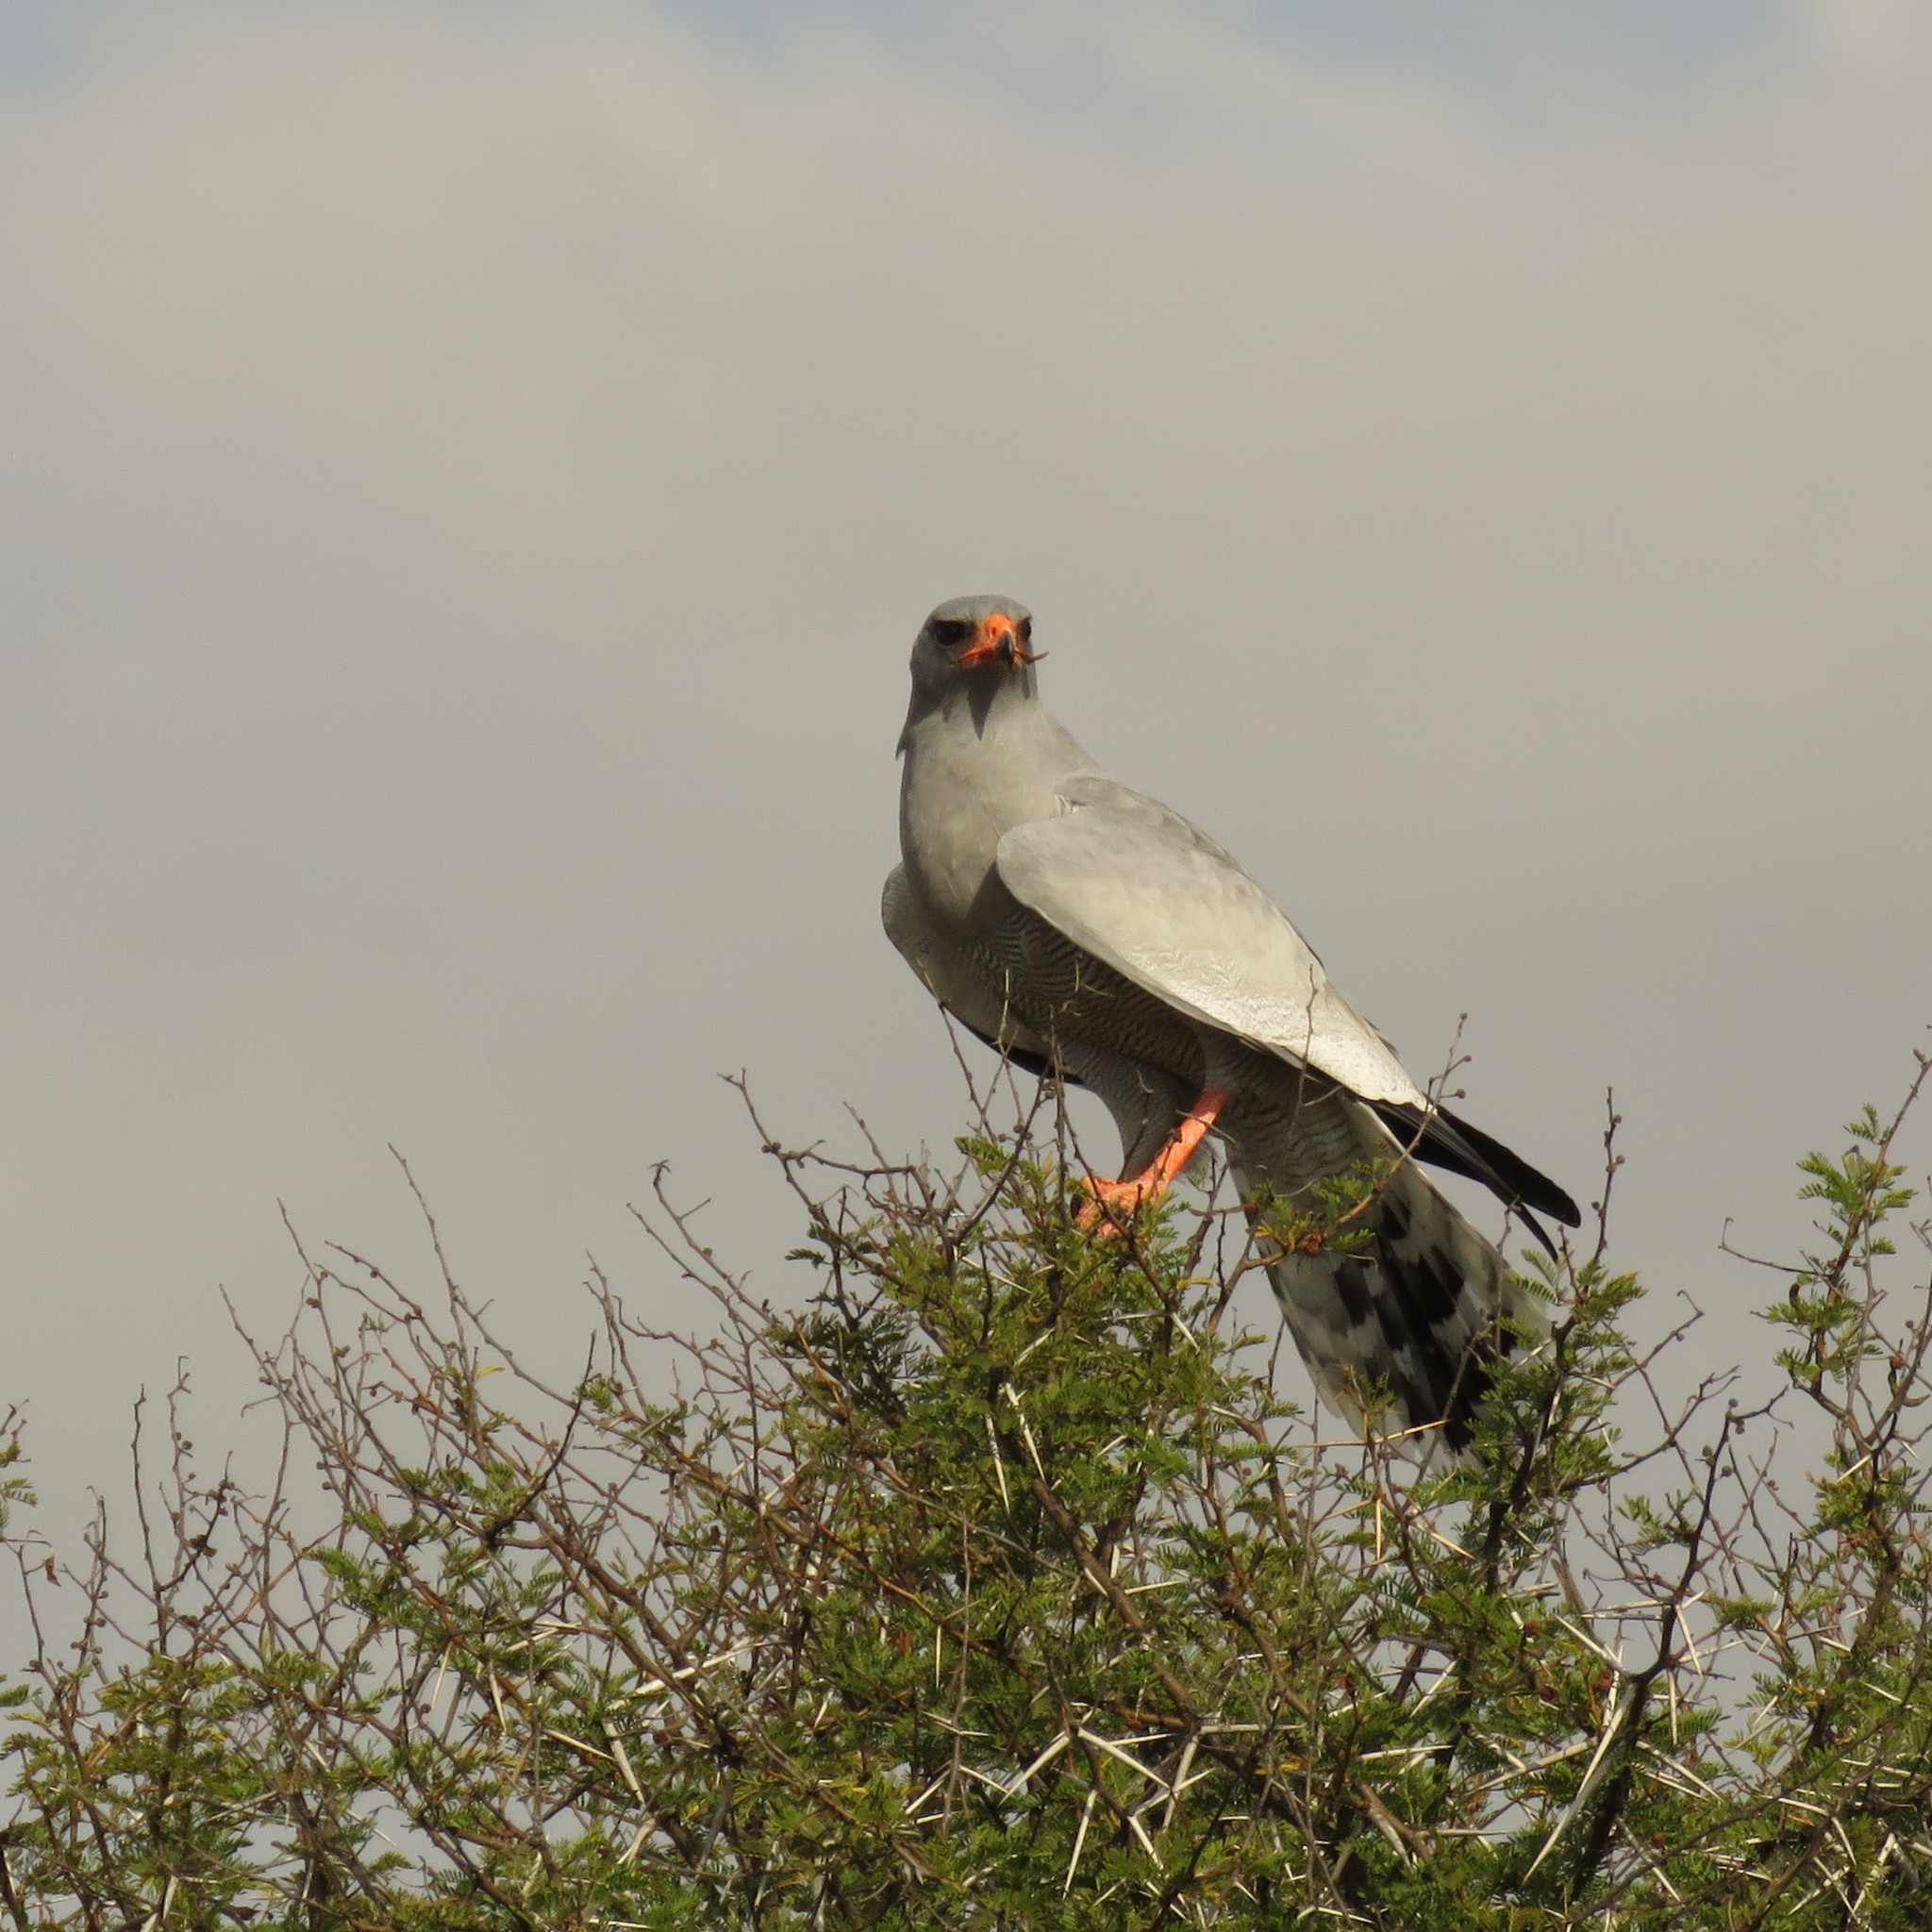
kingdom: Animalia
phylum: Chordata
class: Aves
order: Accipitriformes
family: Accipitridae
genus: Melierax
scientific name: Melierax canorus
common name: Pale chanting-goshawk
